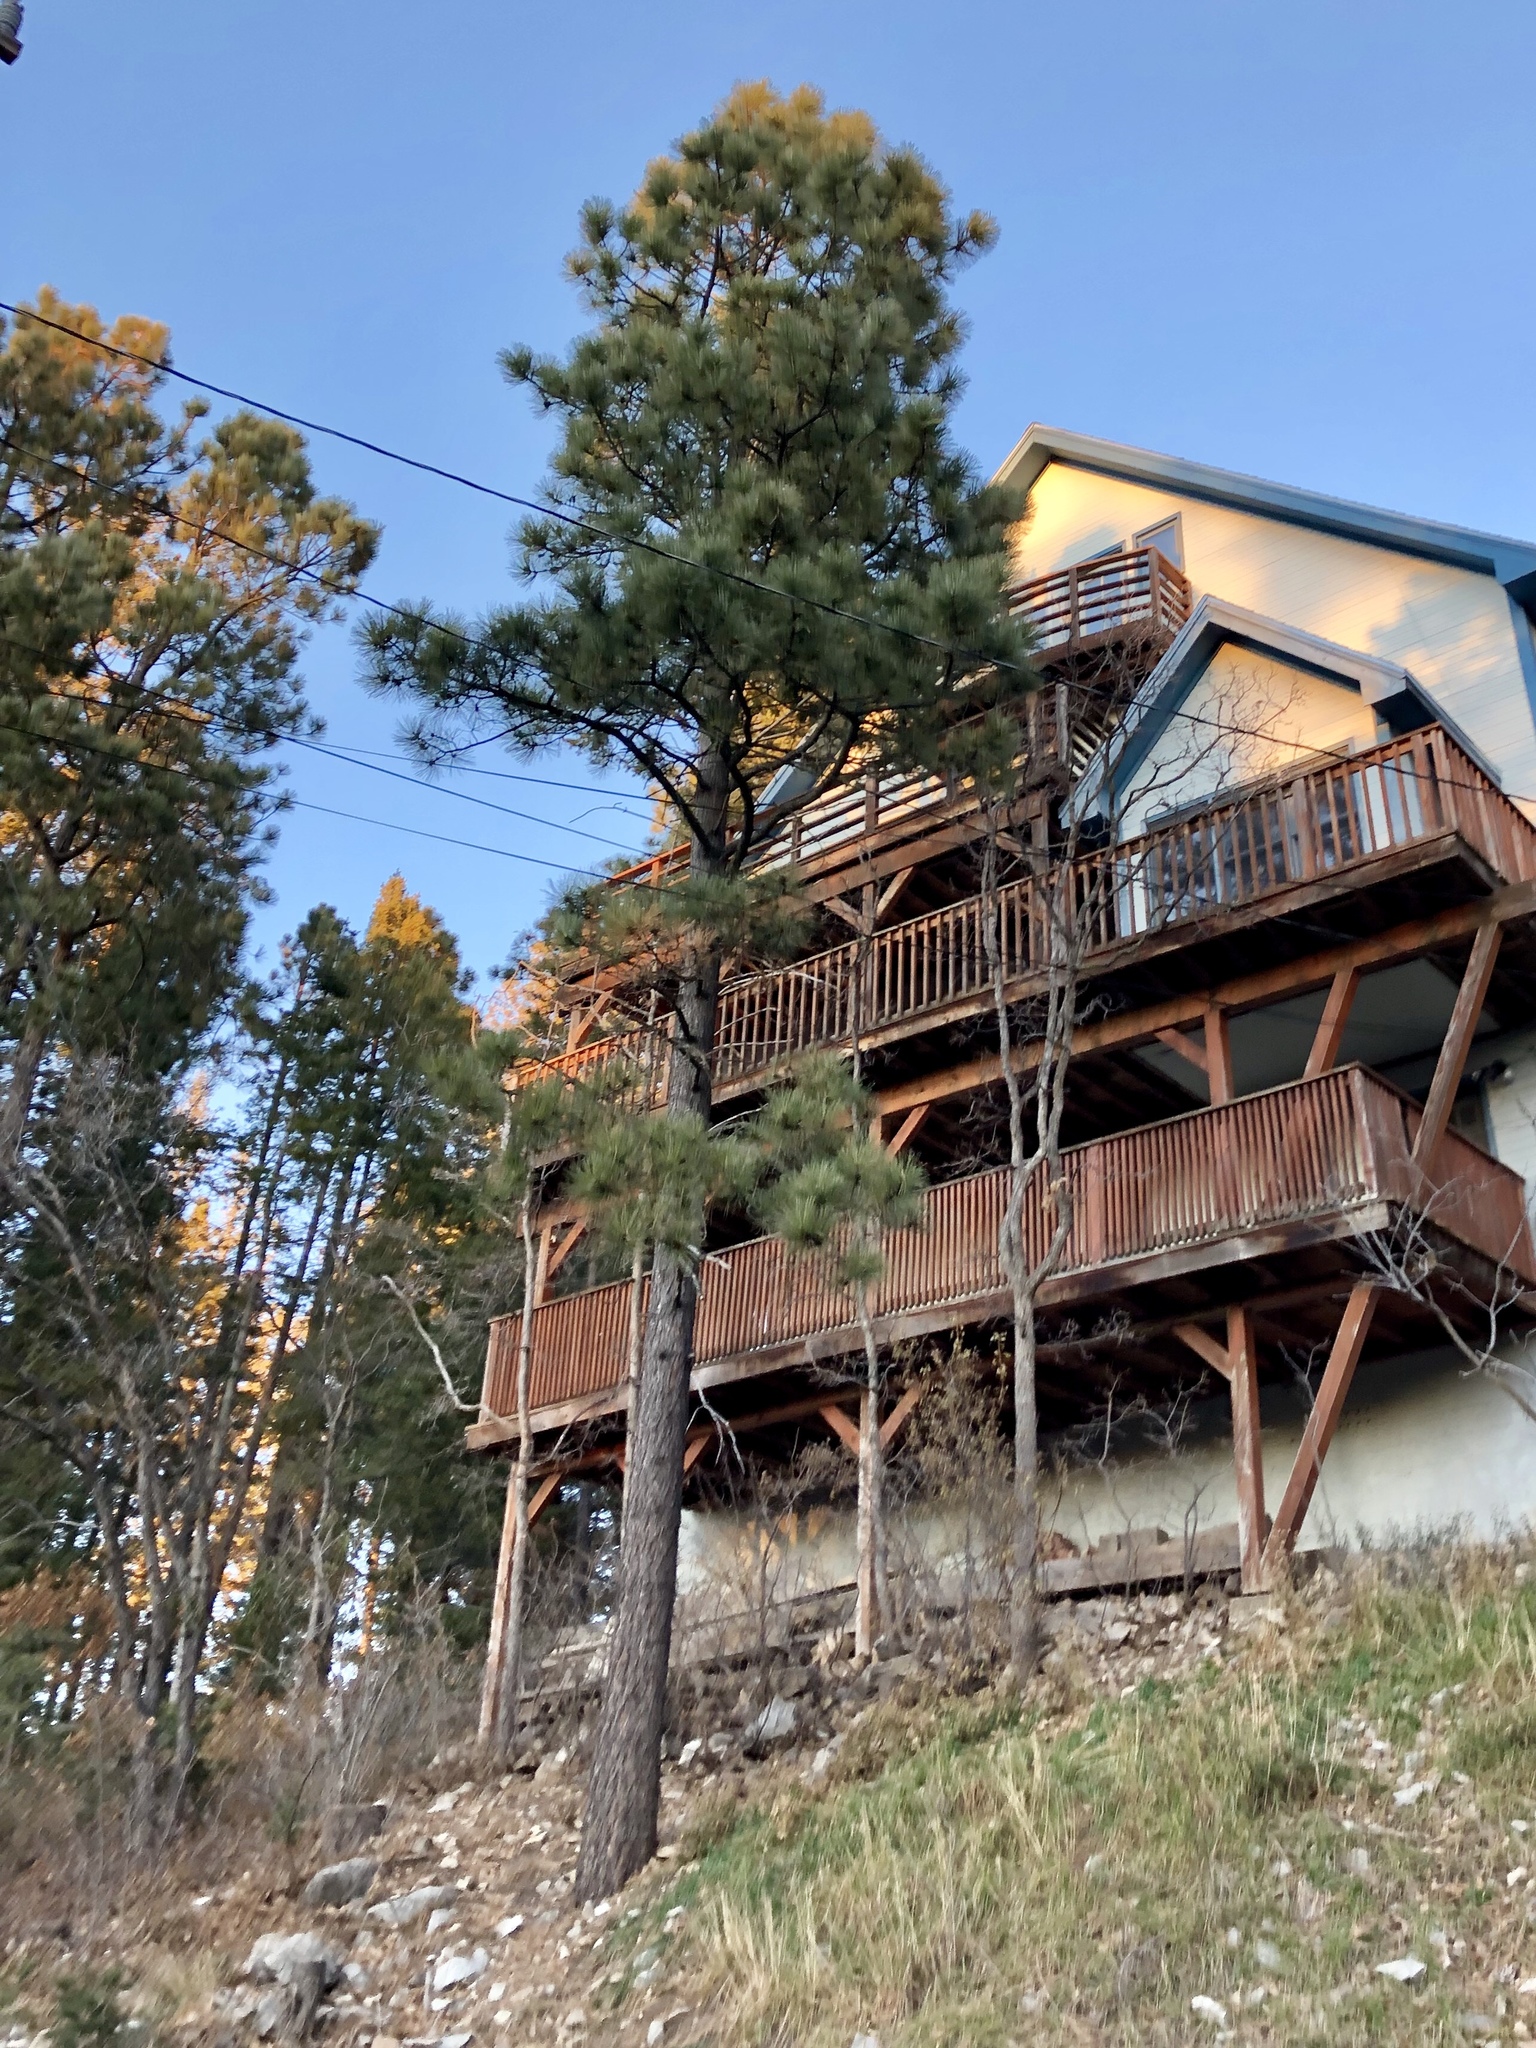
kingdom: Plantae
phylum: Tracheophyta
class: Pinopsida
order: Pinales
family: Pinaceae
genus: Pinus
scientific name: Pinus ponderosa
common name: Western yellow-pine
